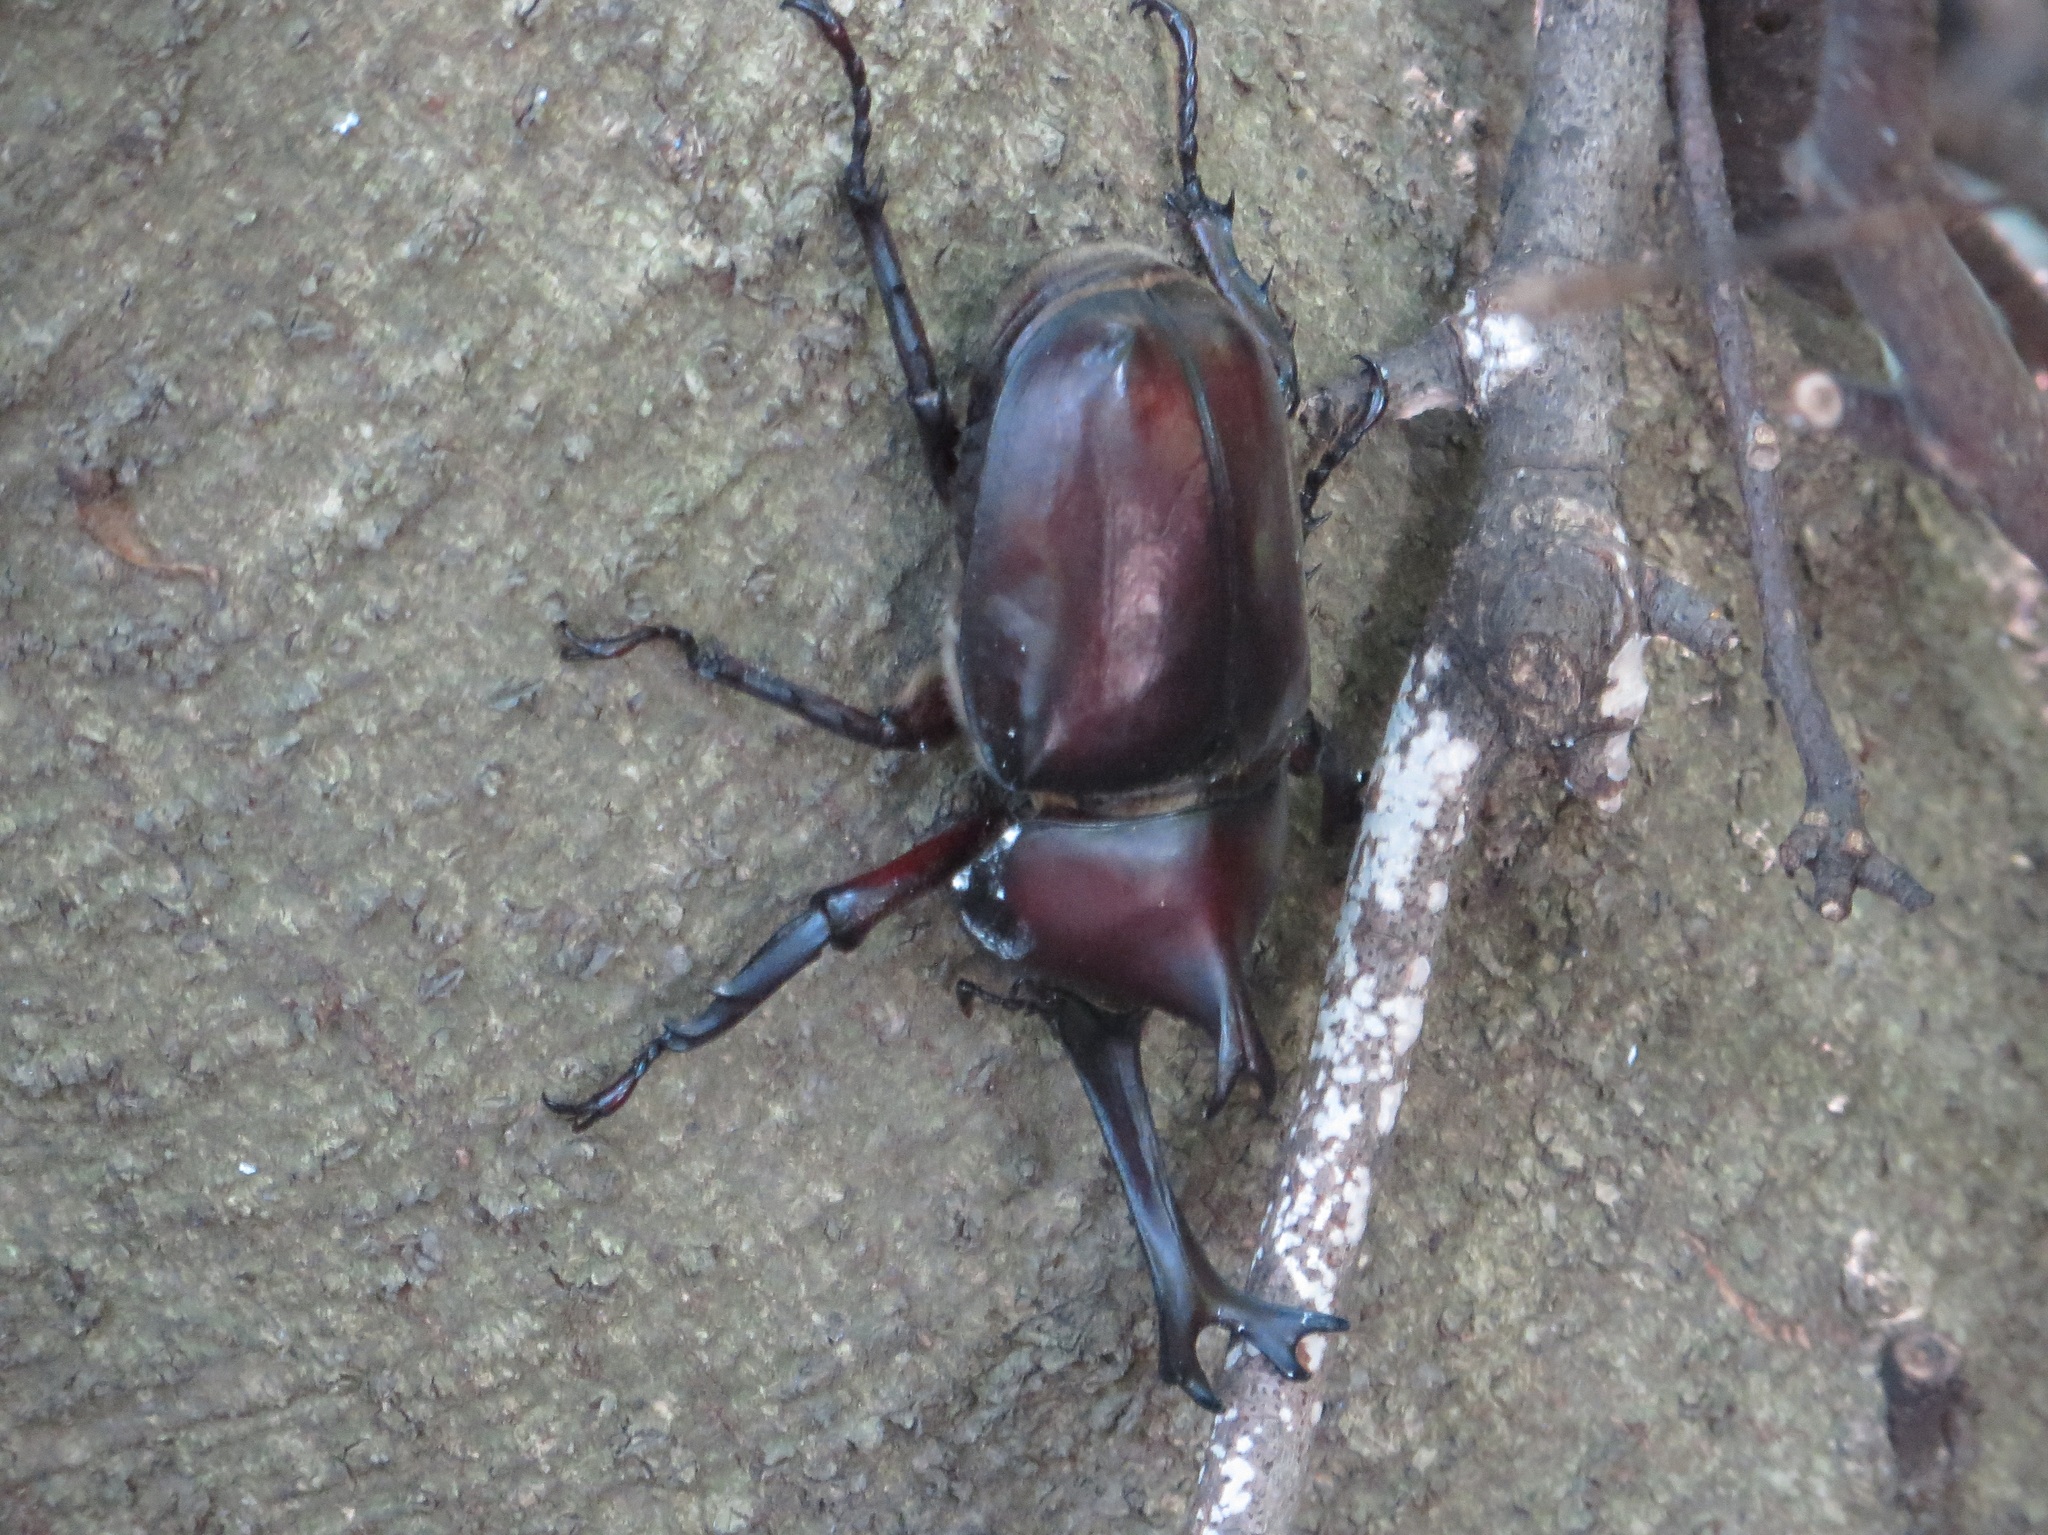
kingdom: Animalia
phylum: Arthropoda
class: Insecta
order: Coleoptera
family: Scarabaeidae
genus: Trypoxylus
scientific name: Trypoxylus dichotomus
